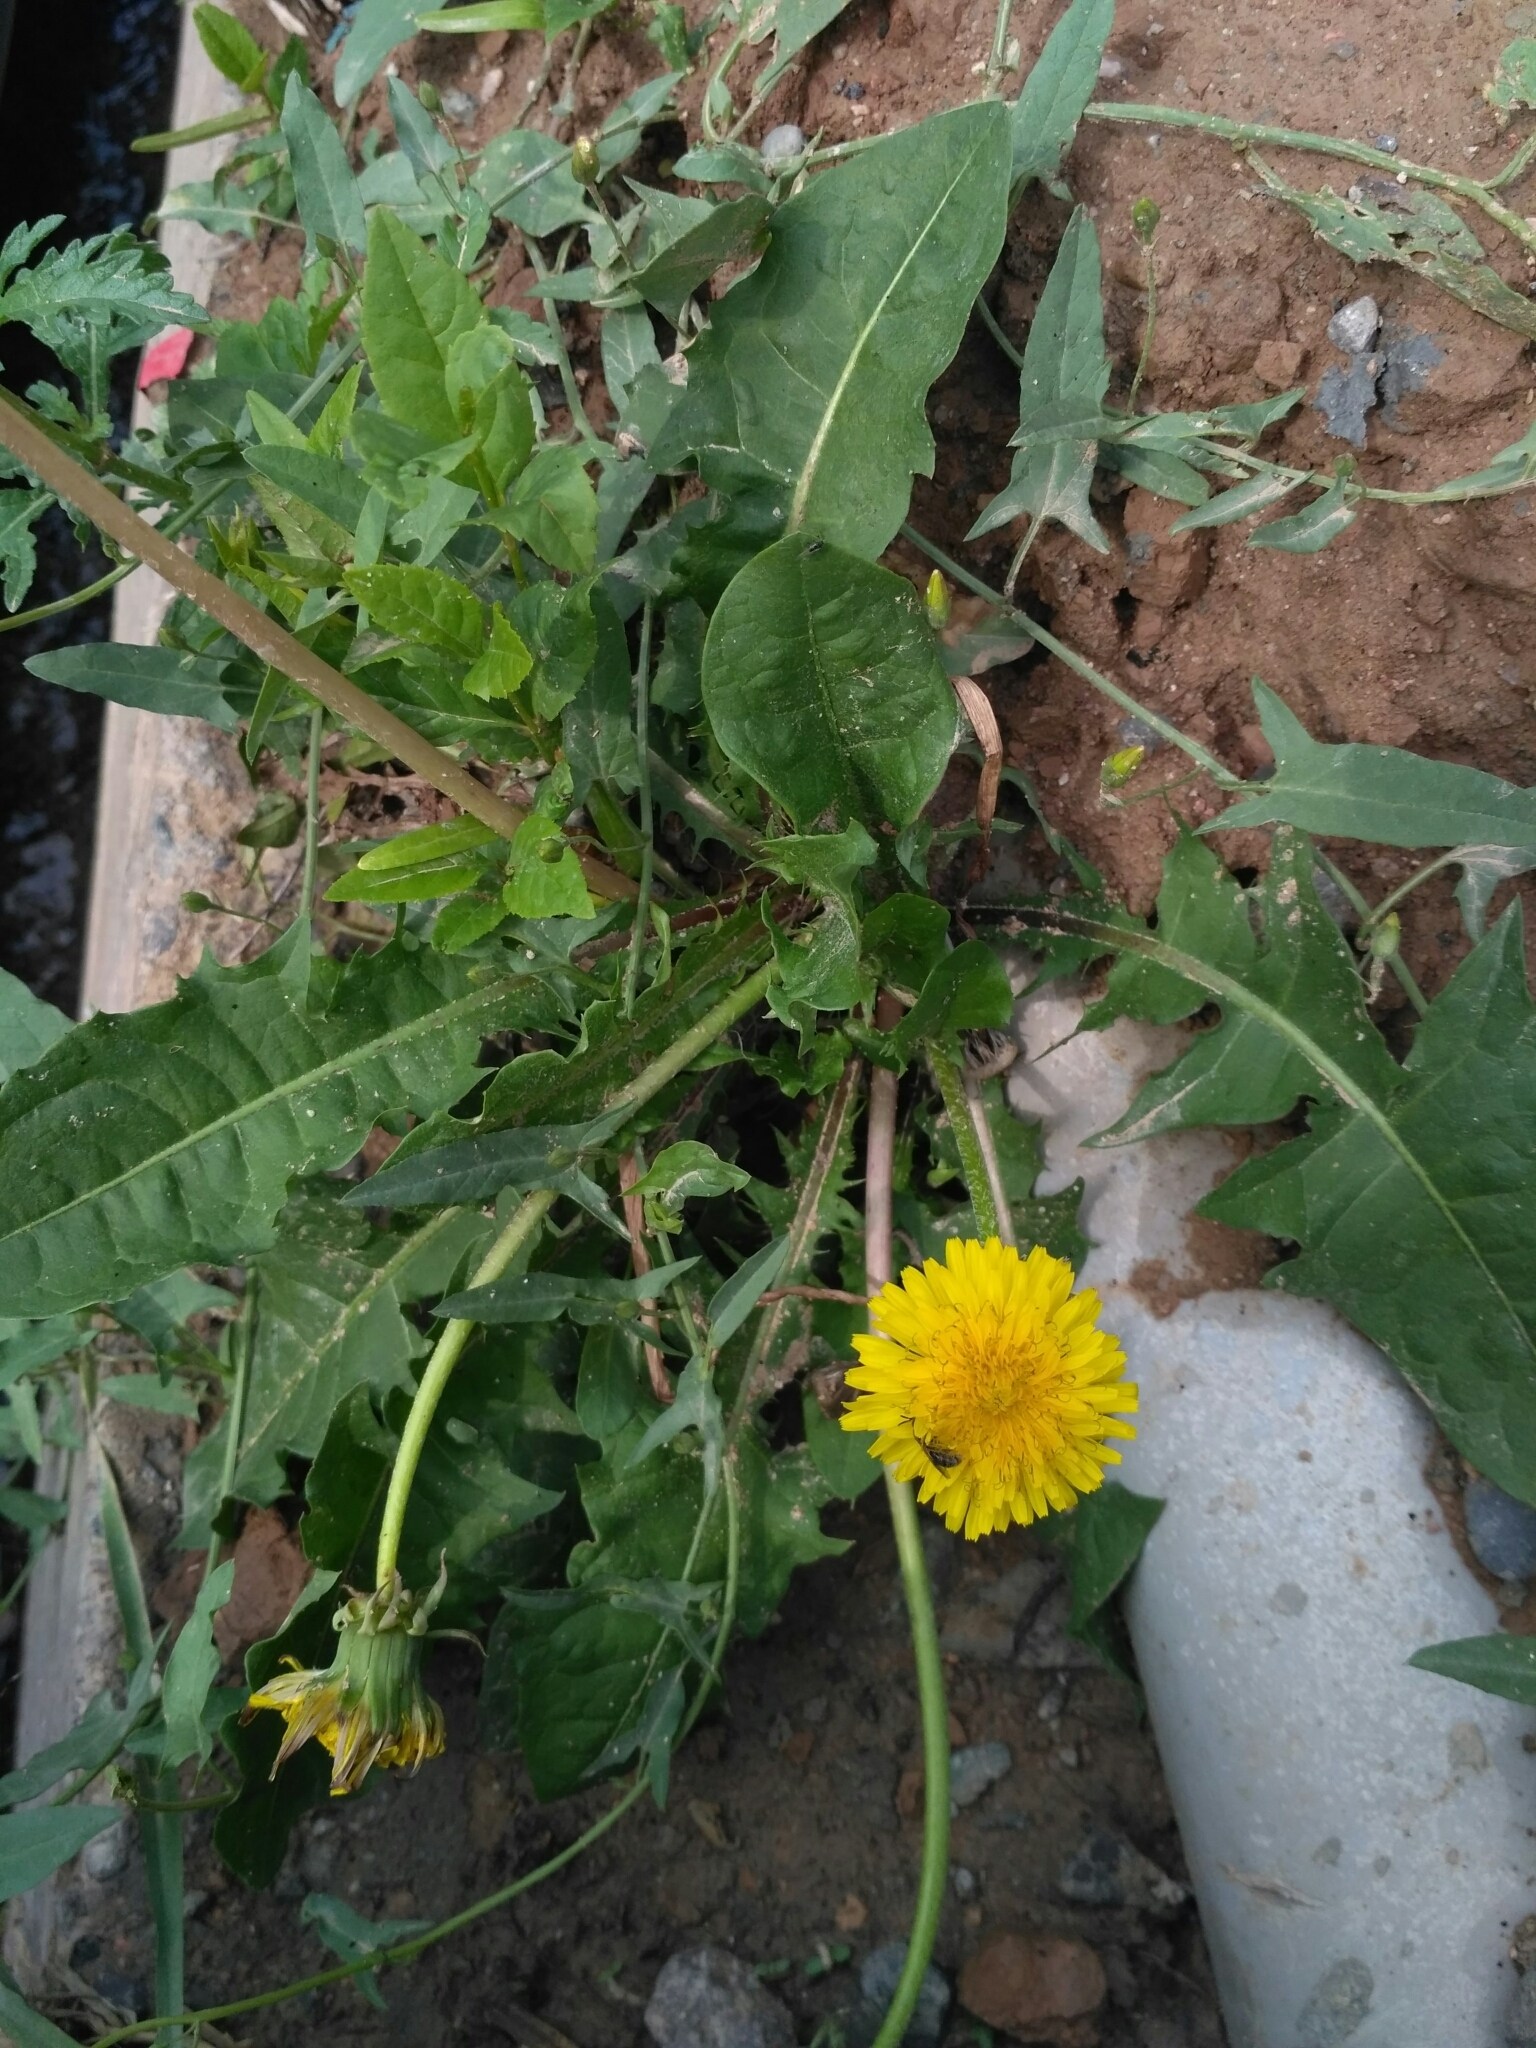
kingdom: Plantae
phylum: Tracheophyta
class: Magnoliopsida
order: Asterales
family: Asteraceae
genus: Taraxacum
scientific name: Taraxacum officinale
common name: Common dandelion
